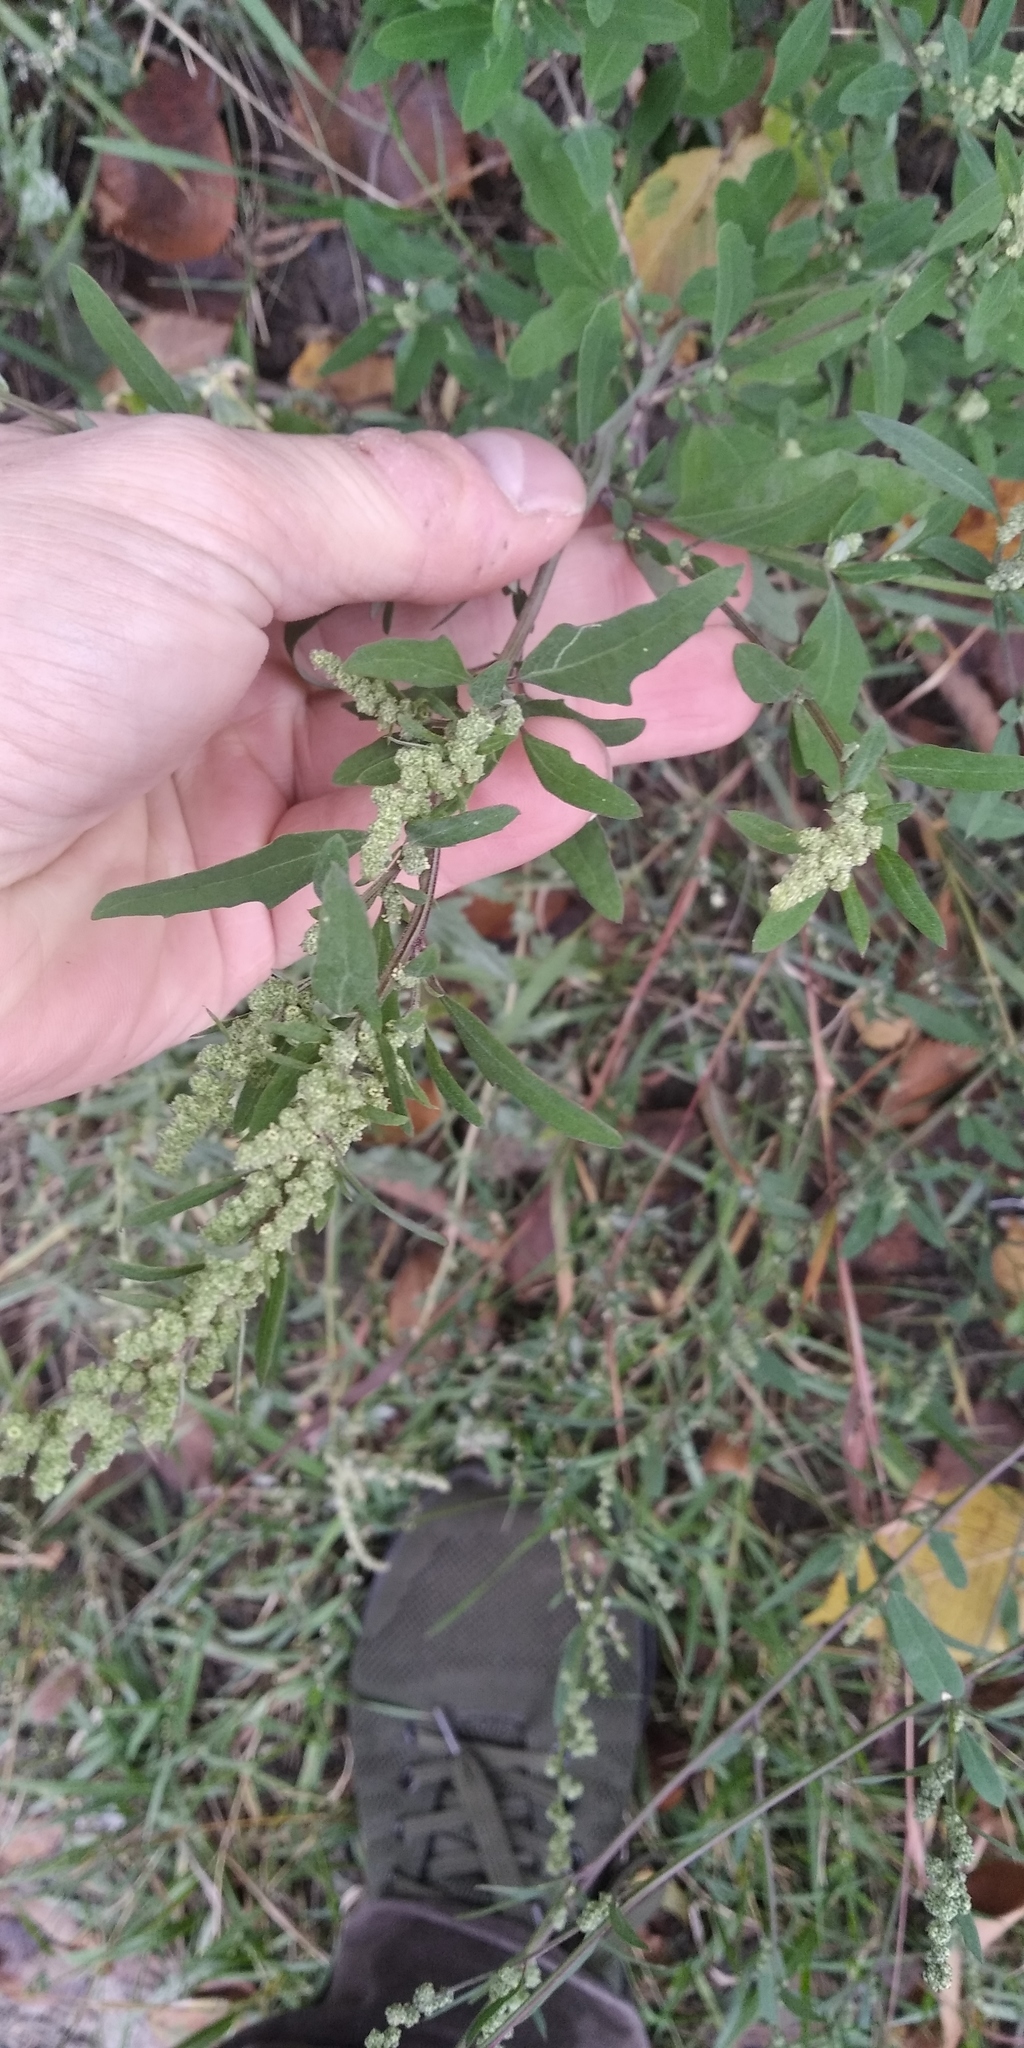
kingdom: Plantae
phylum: Tracheophyta
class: Magnoliopsida
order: Caryophyllales
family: Amaranthaceae
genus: Chenopodium
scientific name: Chenopodium betaceum
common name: Striped goosefoot
